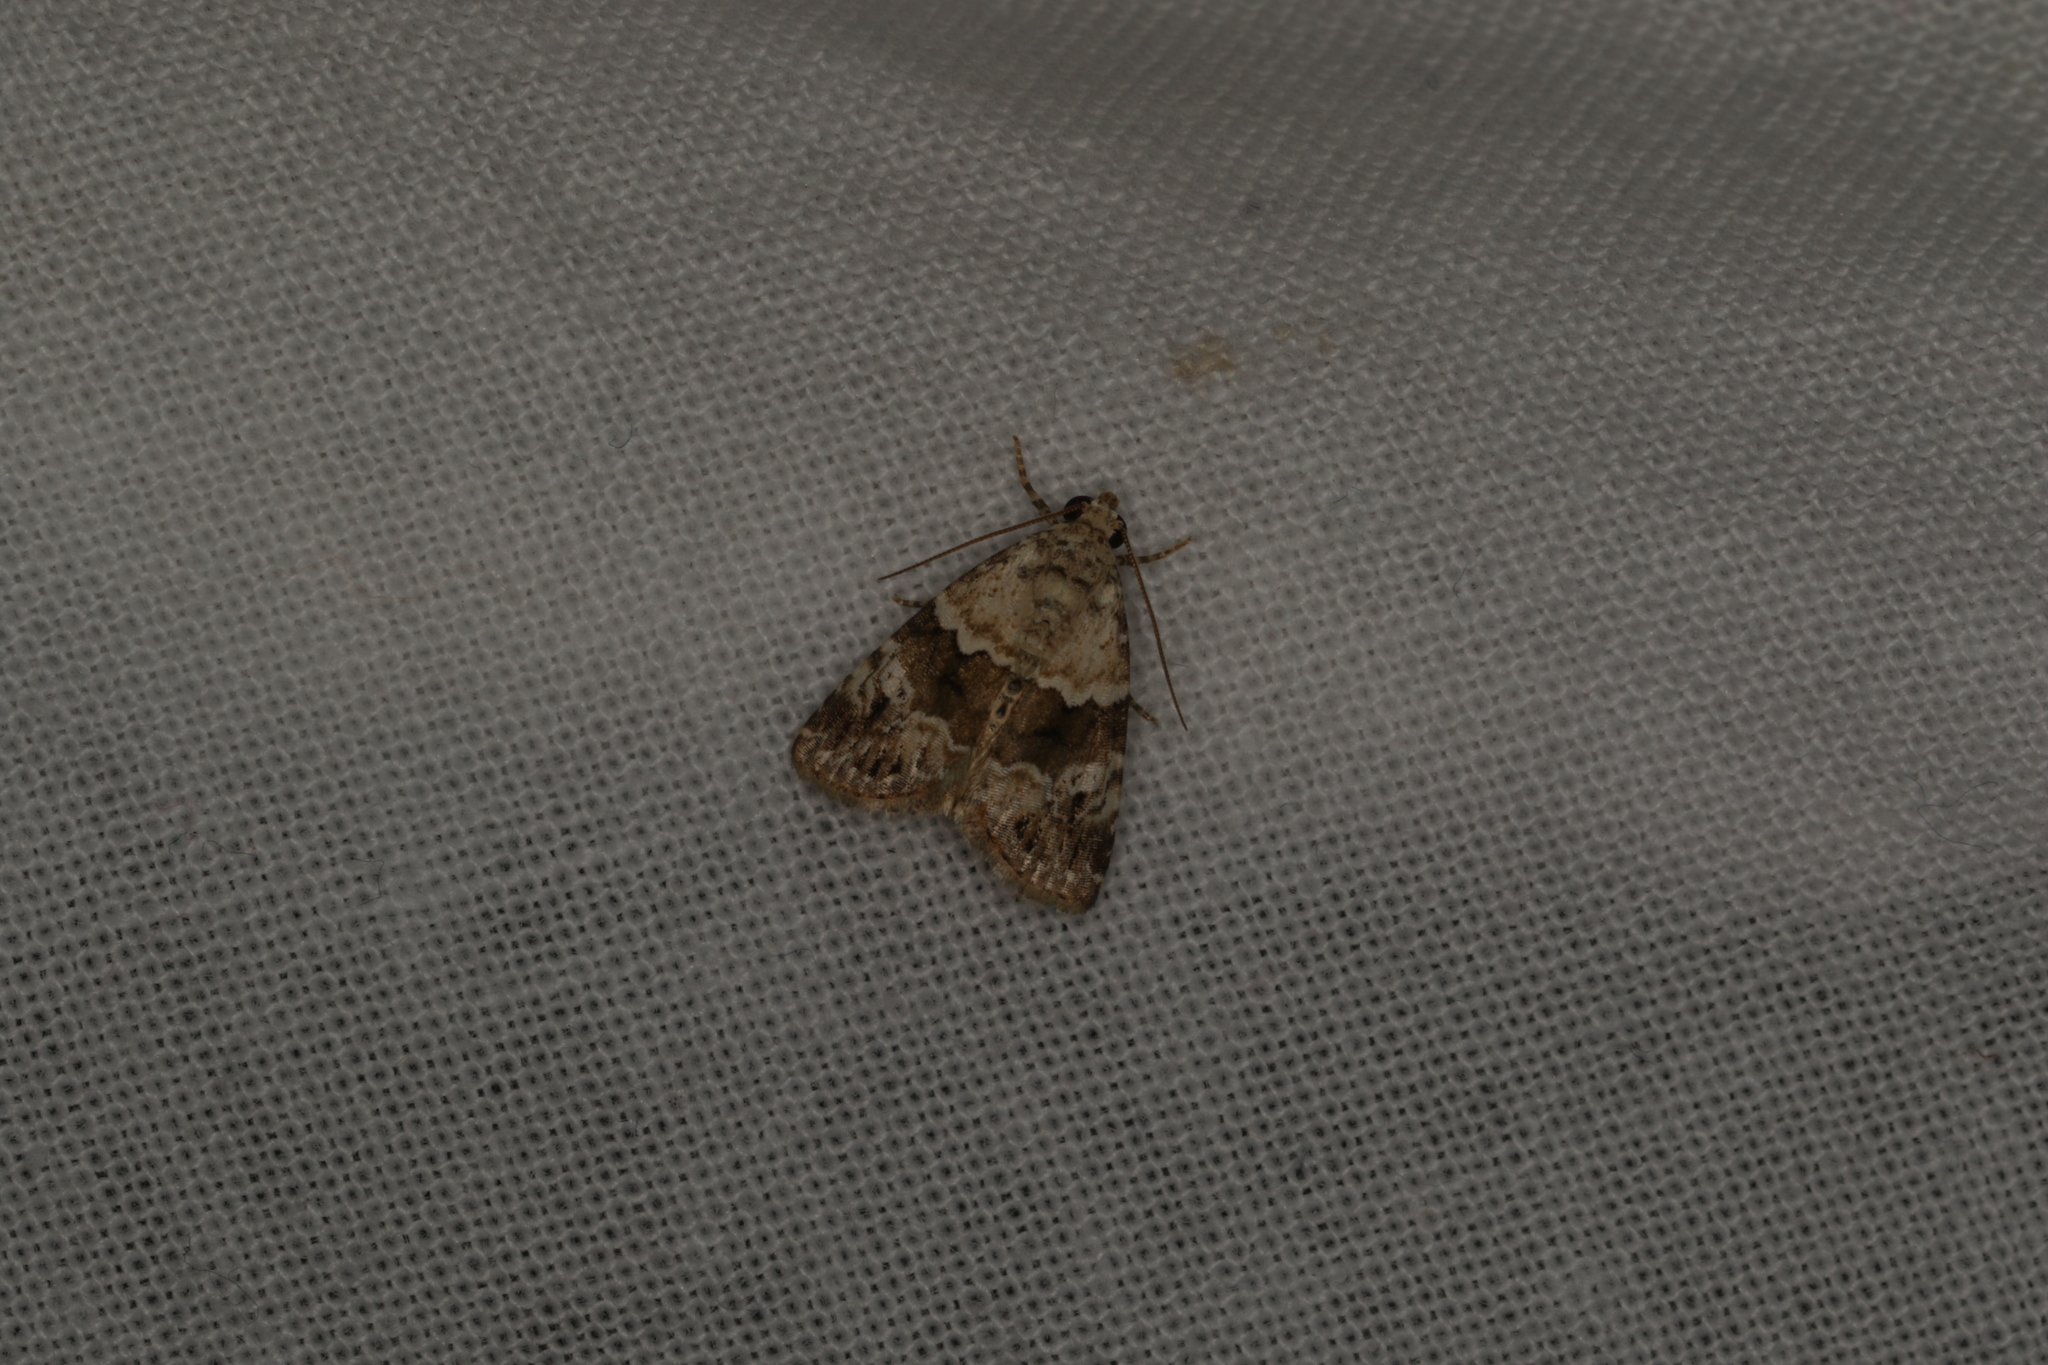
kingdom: Animalia
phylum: Arthropoda
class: Insecta
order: Lepidoptera
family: Noctuidae
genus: Maliattha
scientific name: Maliattha signifera
